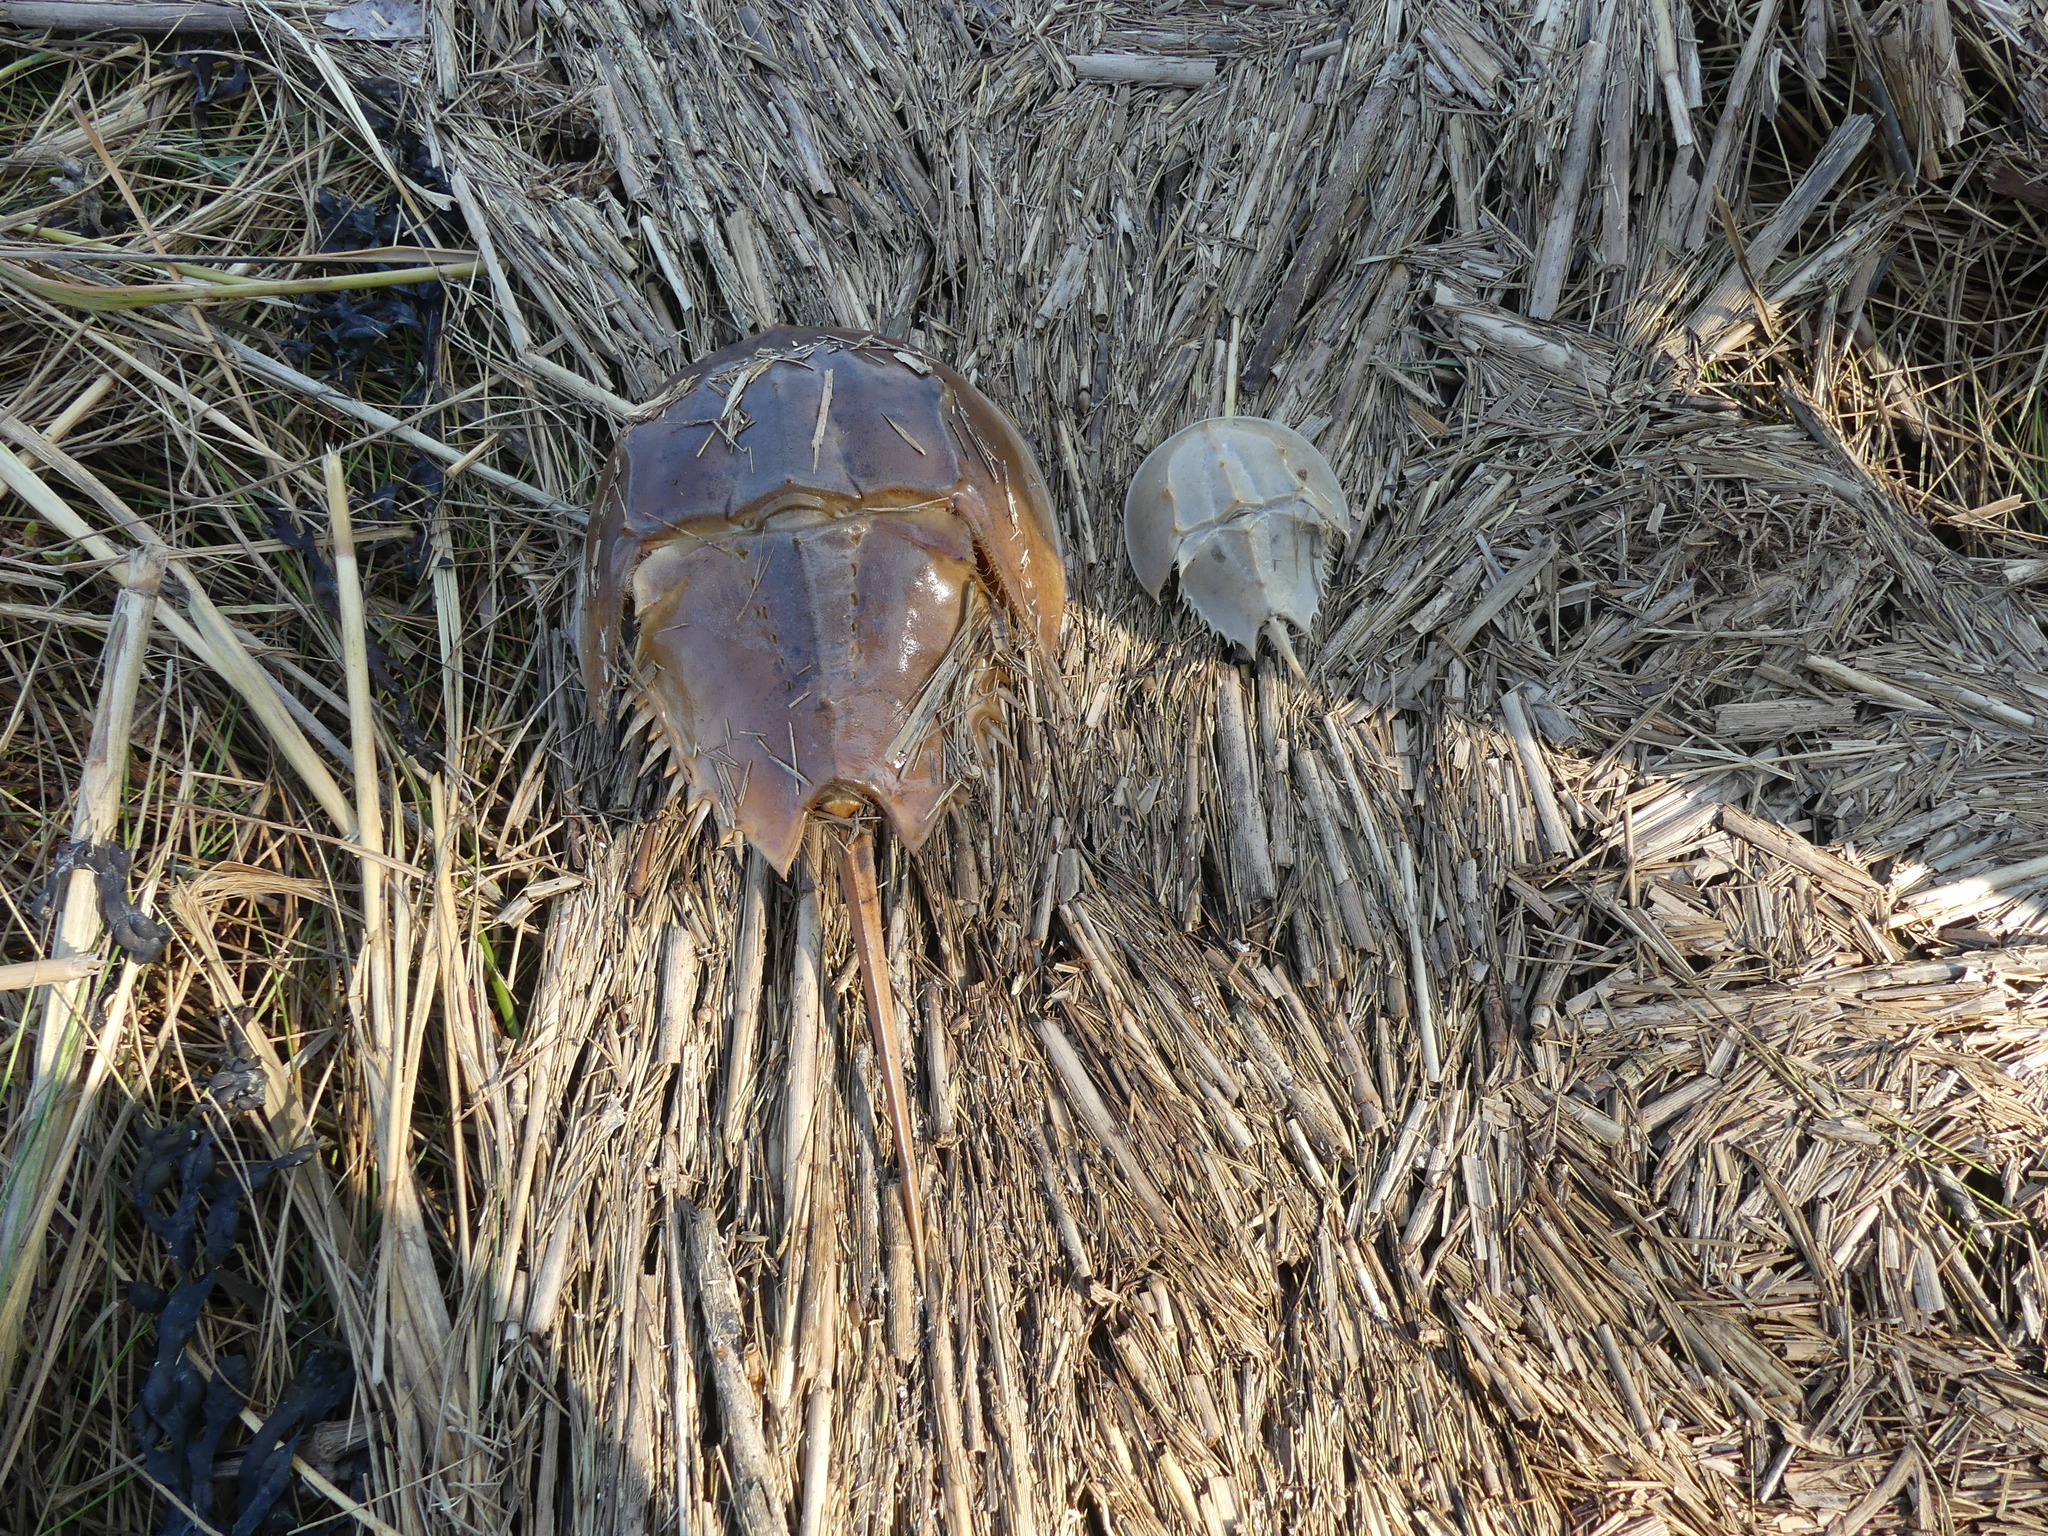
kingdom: Animalia
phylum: Arthropoda
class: Merostomata
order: Xiphosurida
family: Limulidae
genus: Limulus
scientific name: Limulus polyphemus
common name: Horseshoe crab
